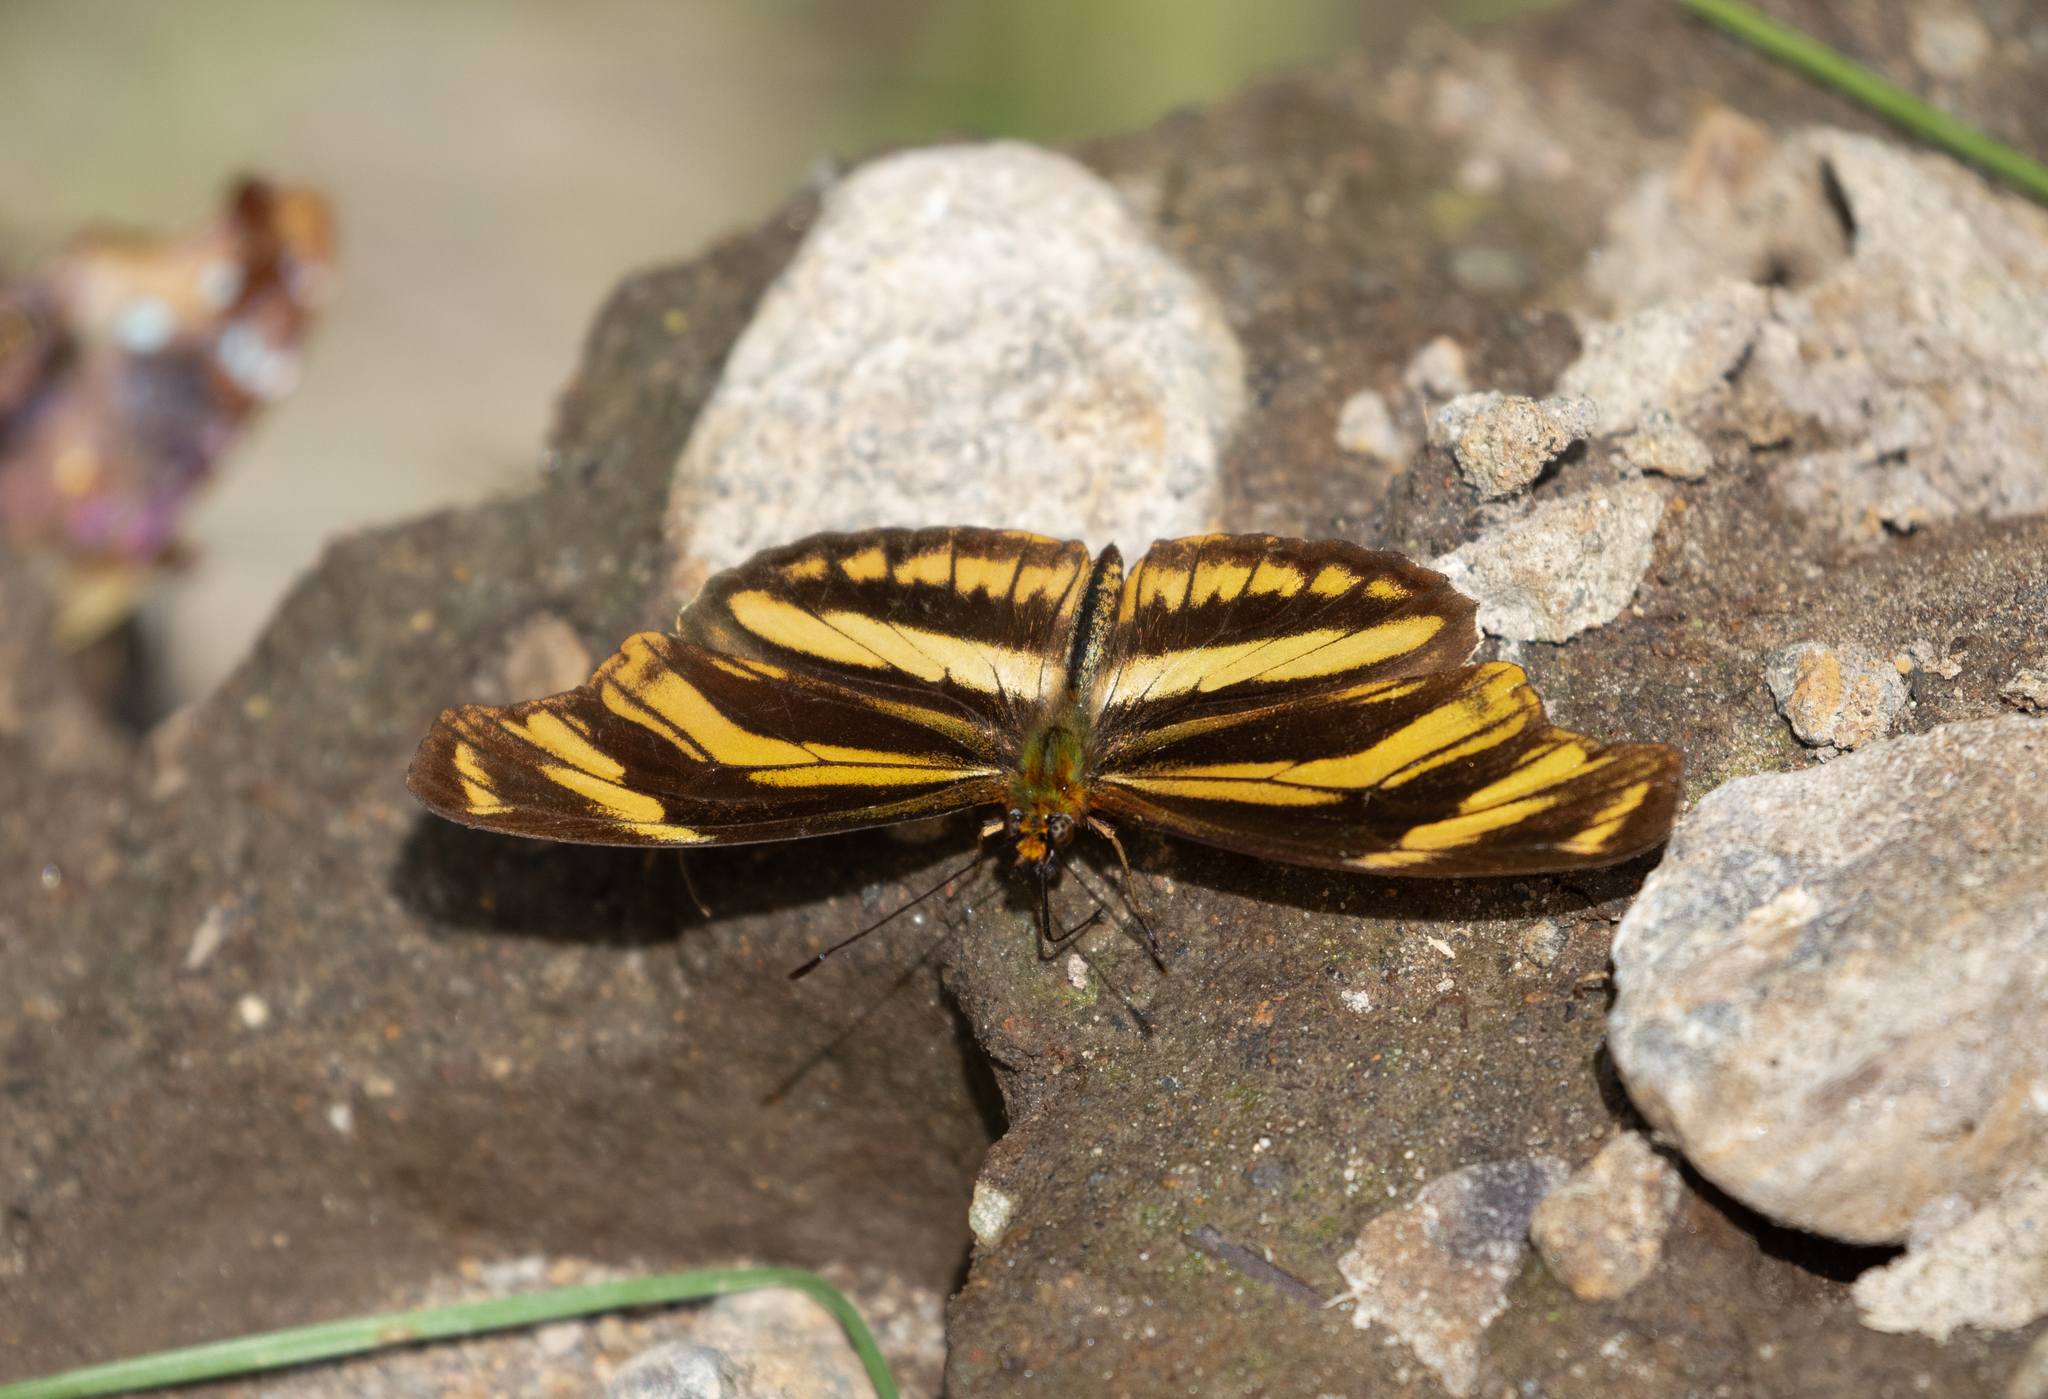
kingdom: Animalia
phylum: Arthropoda
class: Insecta
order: Lepidoptera
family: Nymphalidae
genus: Podotricha
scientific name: Podotricha judith
